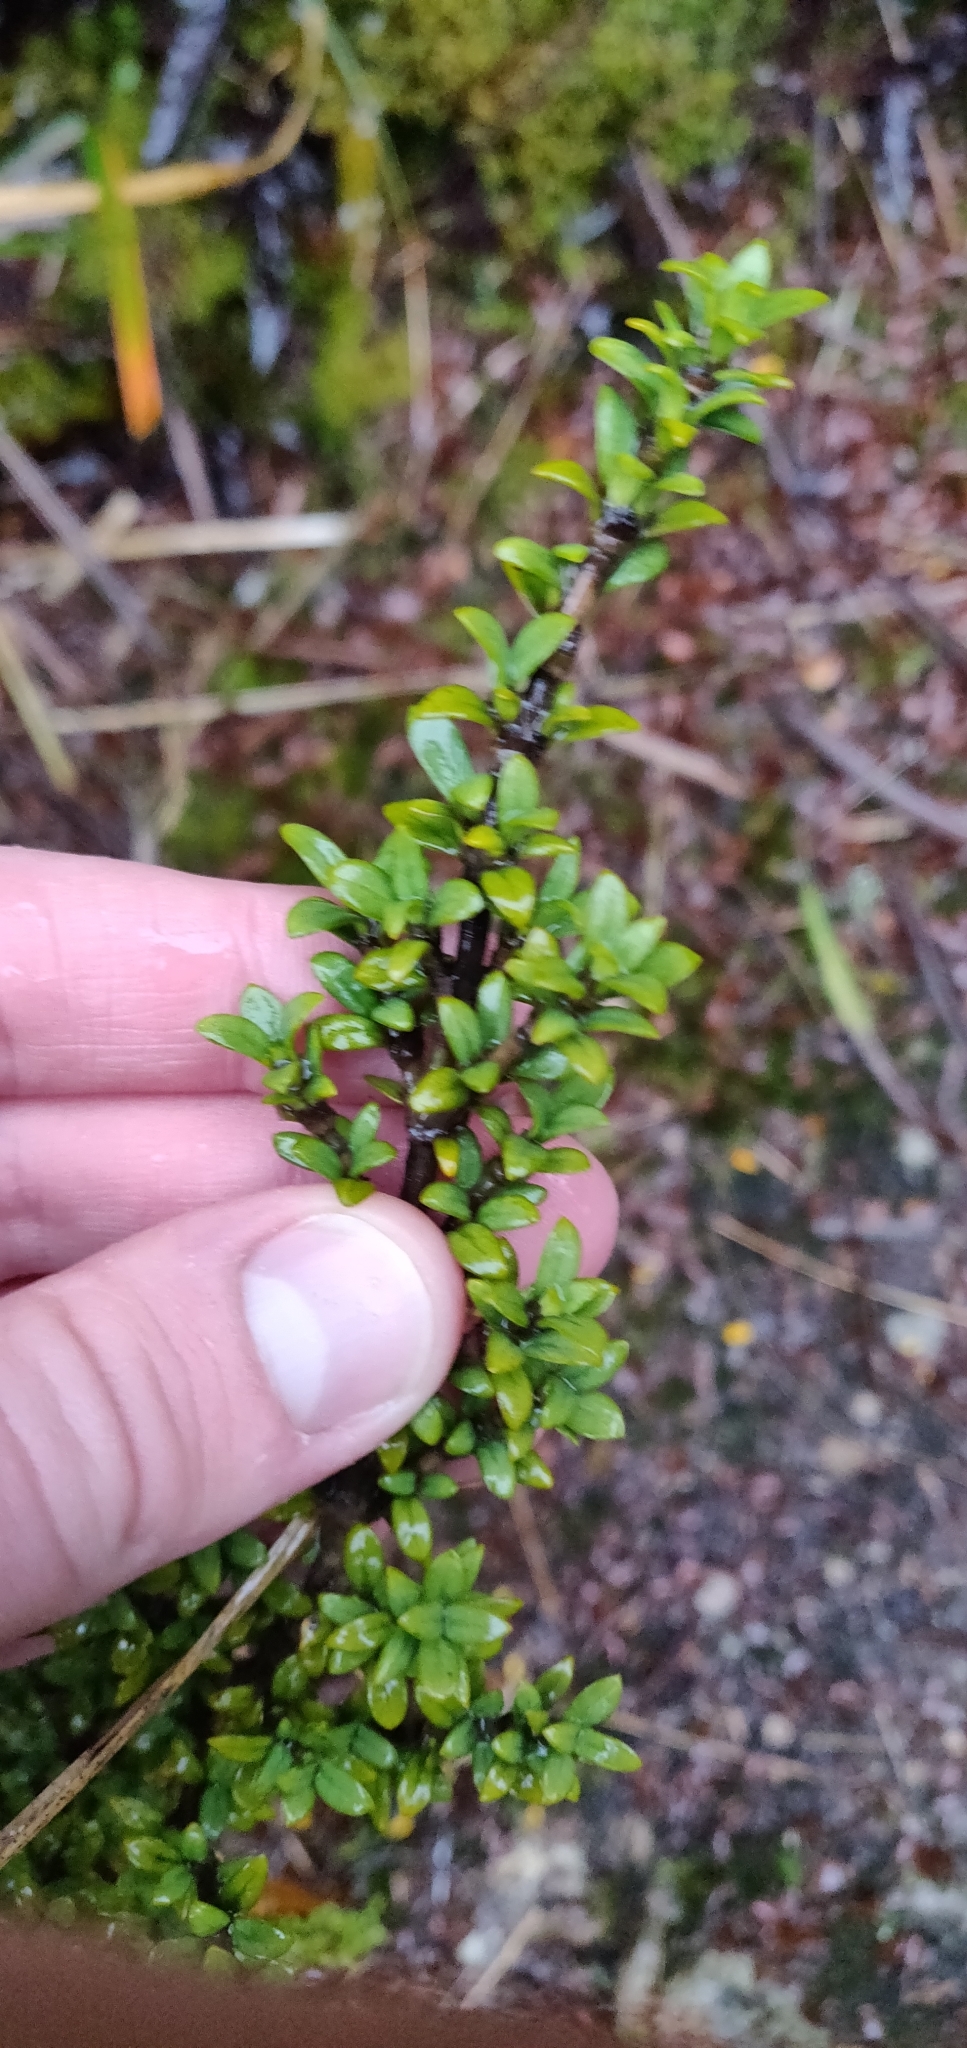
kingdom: Plantae
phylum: Tracheophyta
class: Magnoliopsida
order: Gentianales
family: Rubiaceae
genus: Coprosma
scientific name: Coprosma pseudocuneata
